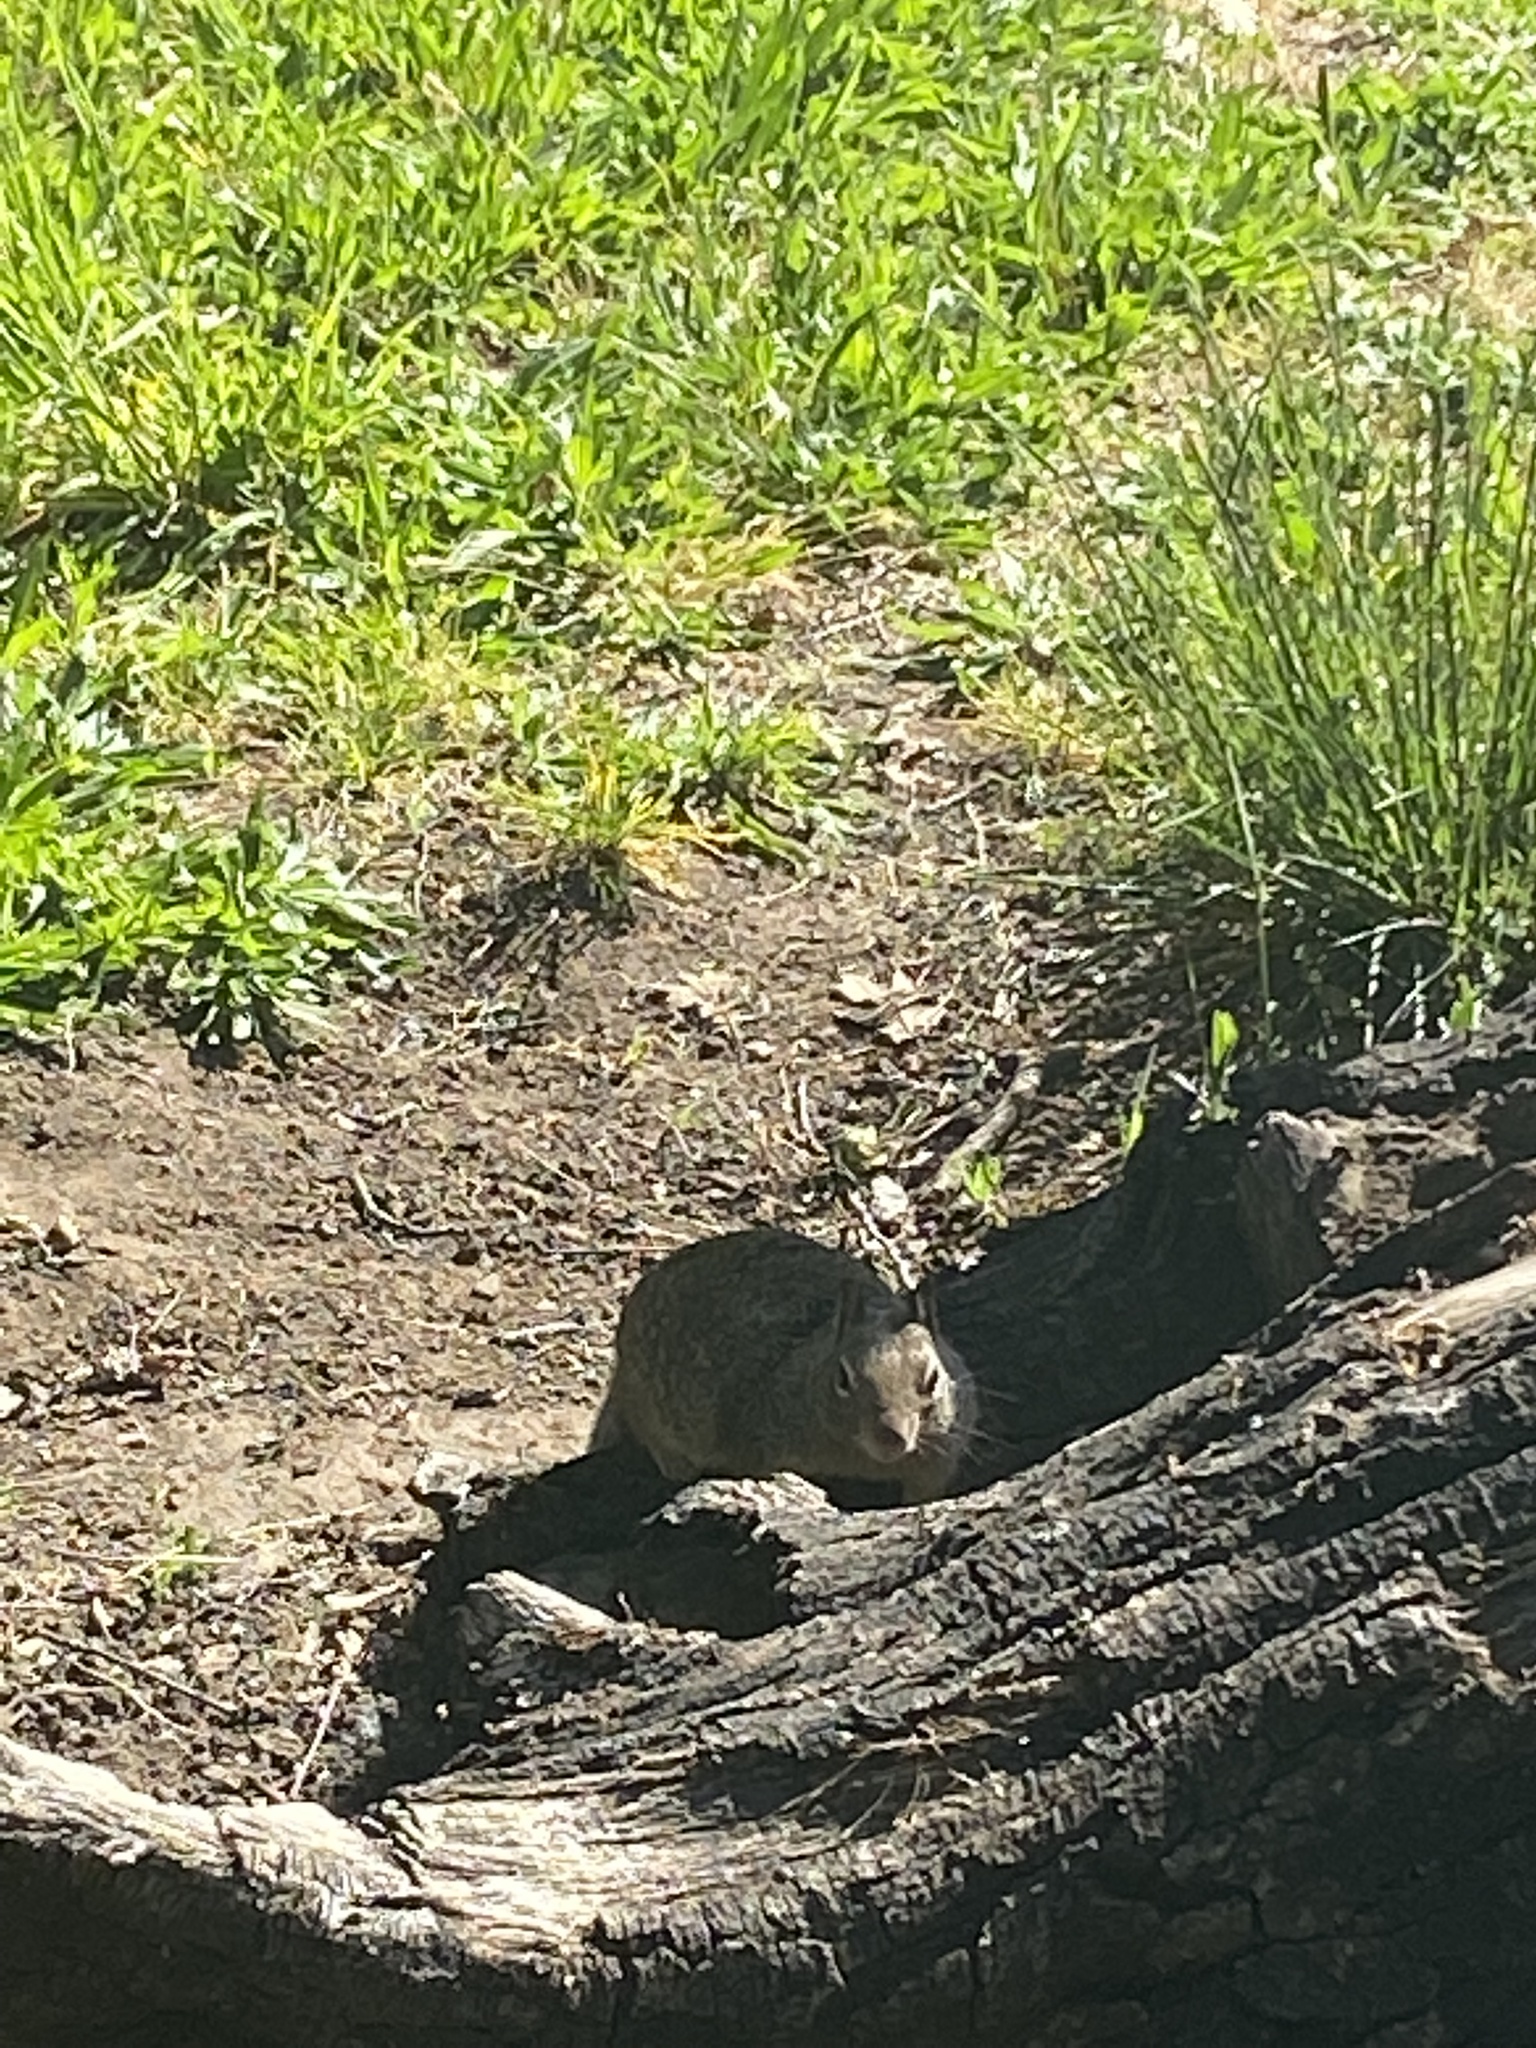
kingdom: Animalia
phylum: Chordata
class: Mammalia
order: Rodentia
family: Sciuridae
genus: Otospermophilus
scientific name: Otospermophilus beecheyi
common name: California ground squirrel
